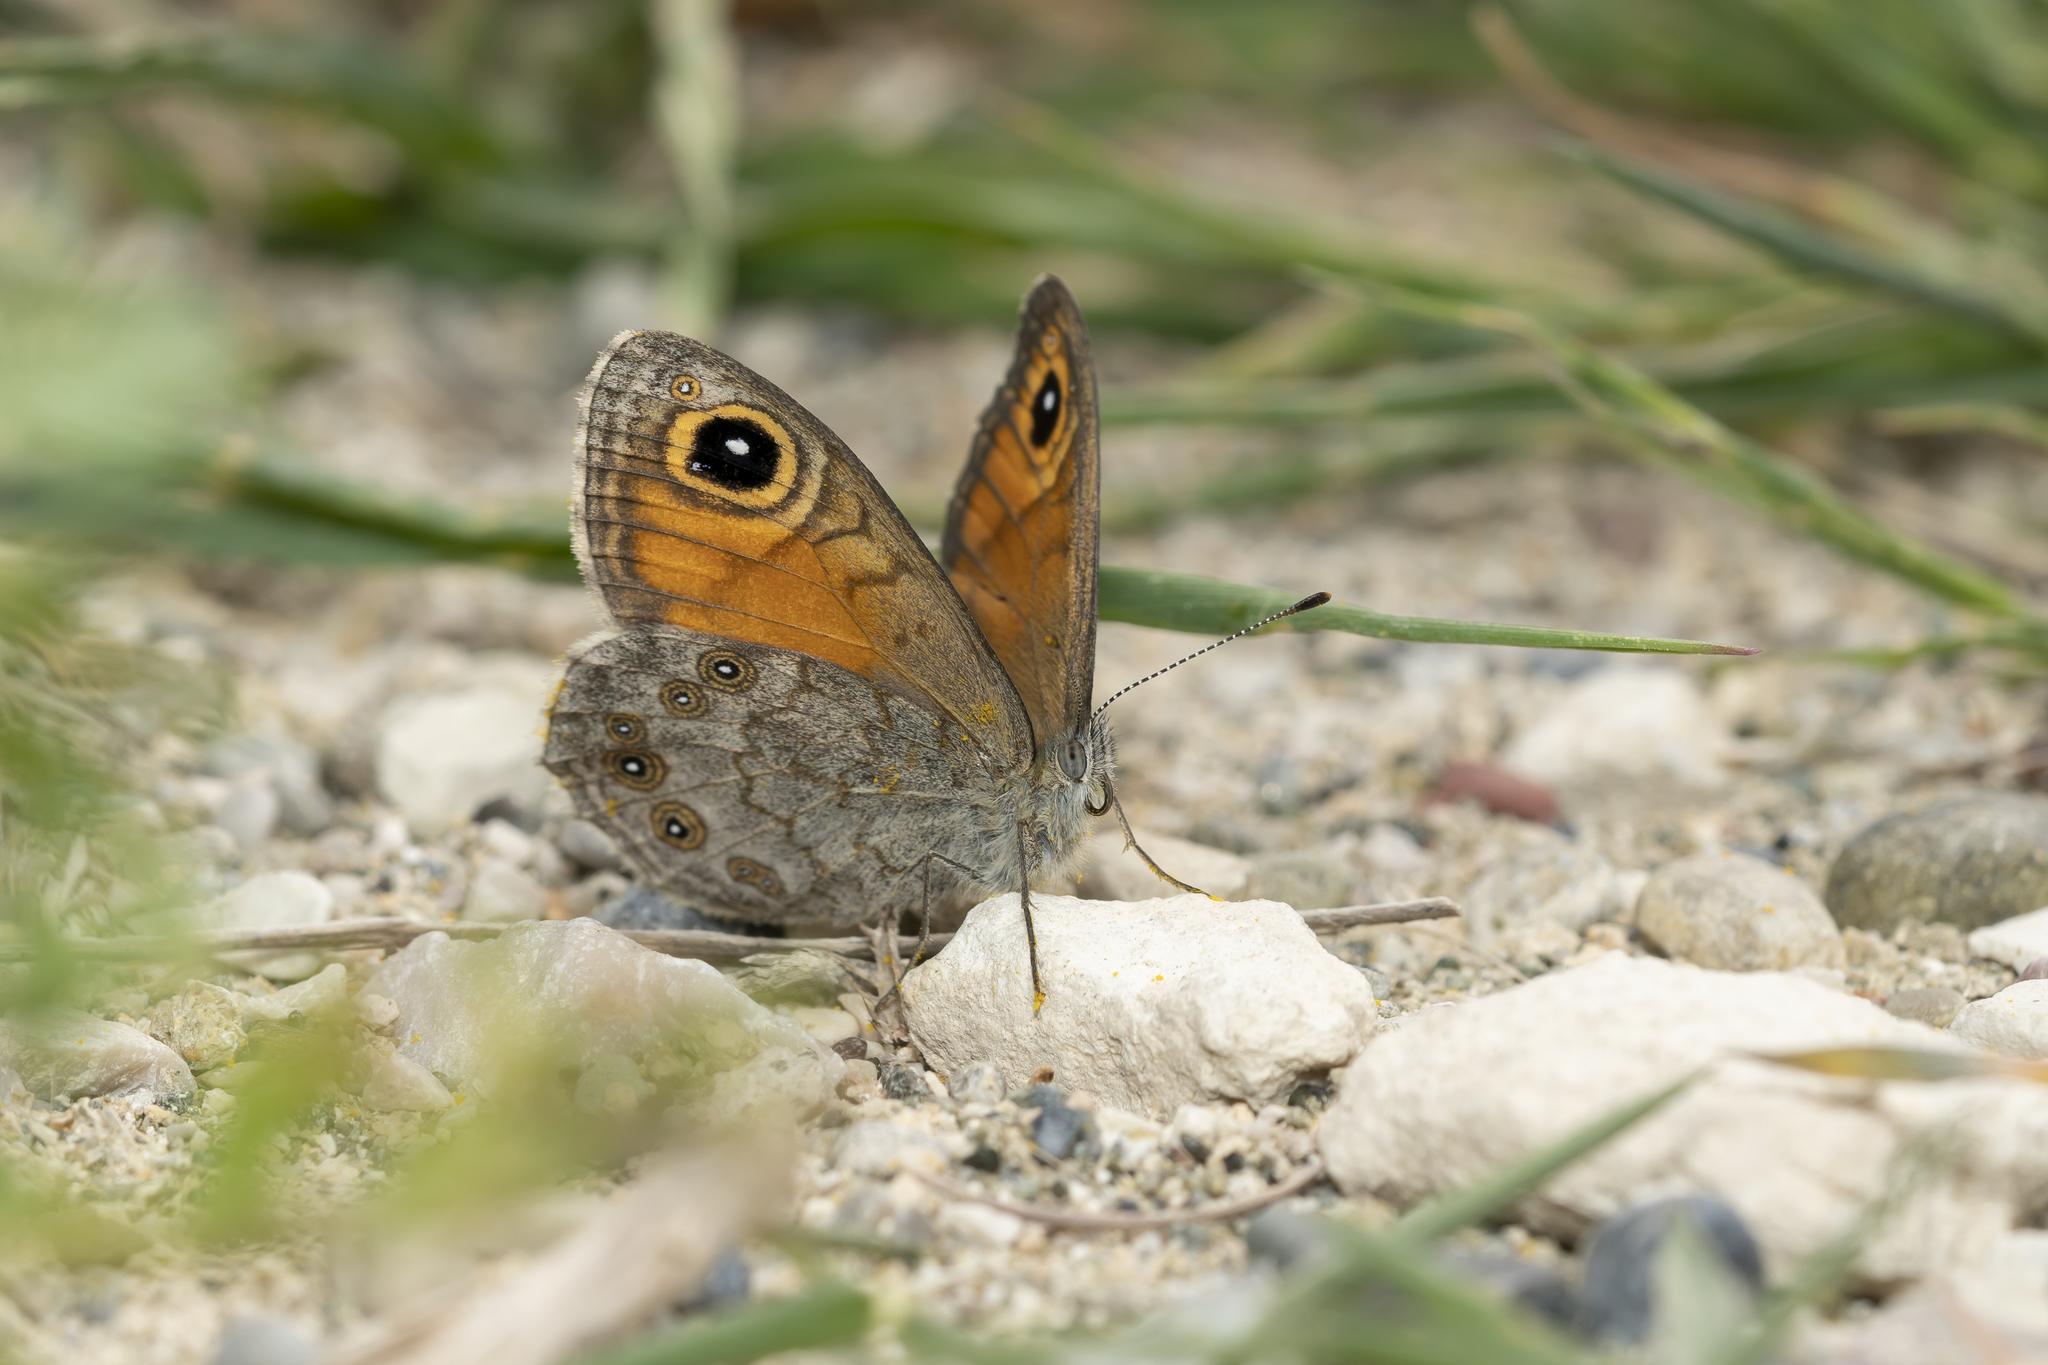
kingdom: Animalia
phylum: Arthropoda
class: Insecta
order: Lepidoptera
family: Nymphalidae
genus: Pararge
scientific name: Pararge Lasiommata maera
